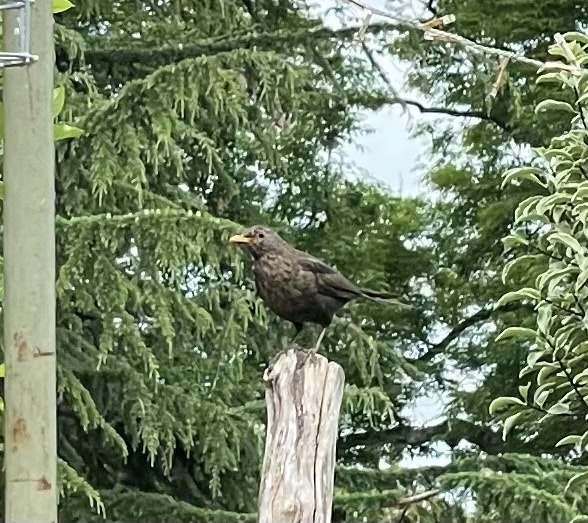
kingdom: Animalia
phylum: Chordata
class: Aves
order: Passeriformes
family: Turdidae
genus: Turdus
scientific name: Turdus merula
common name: Common blackbird
